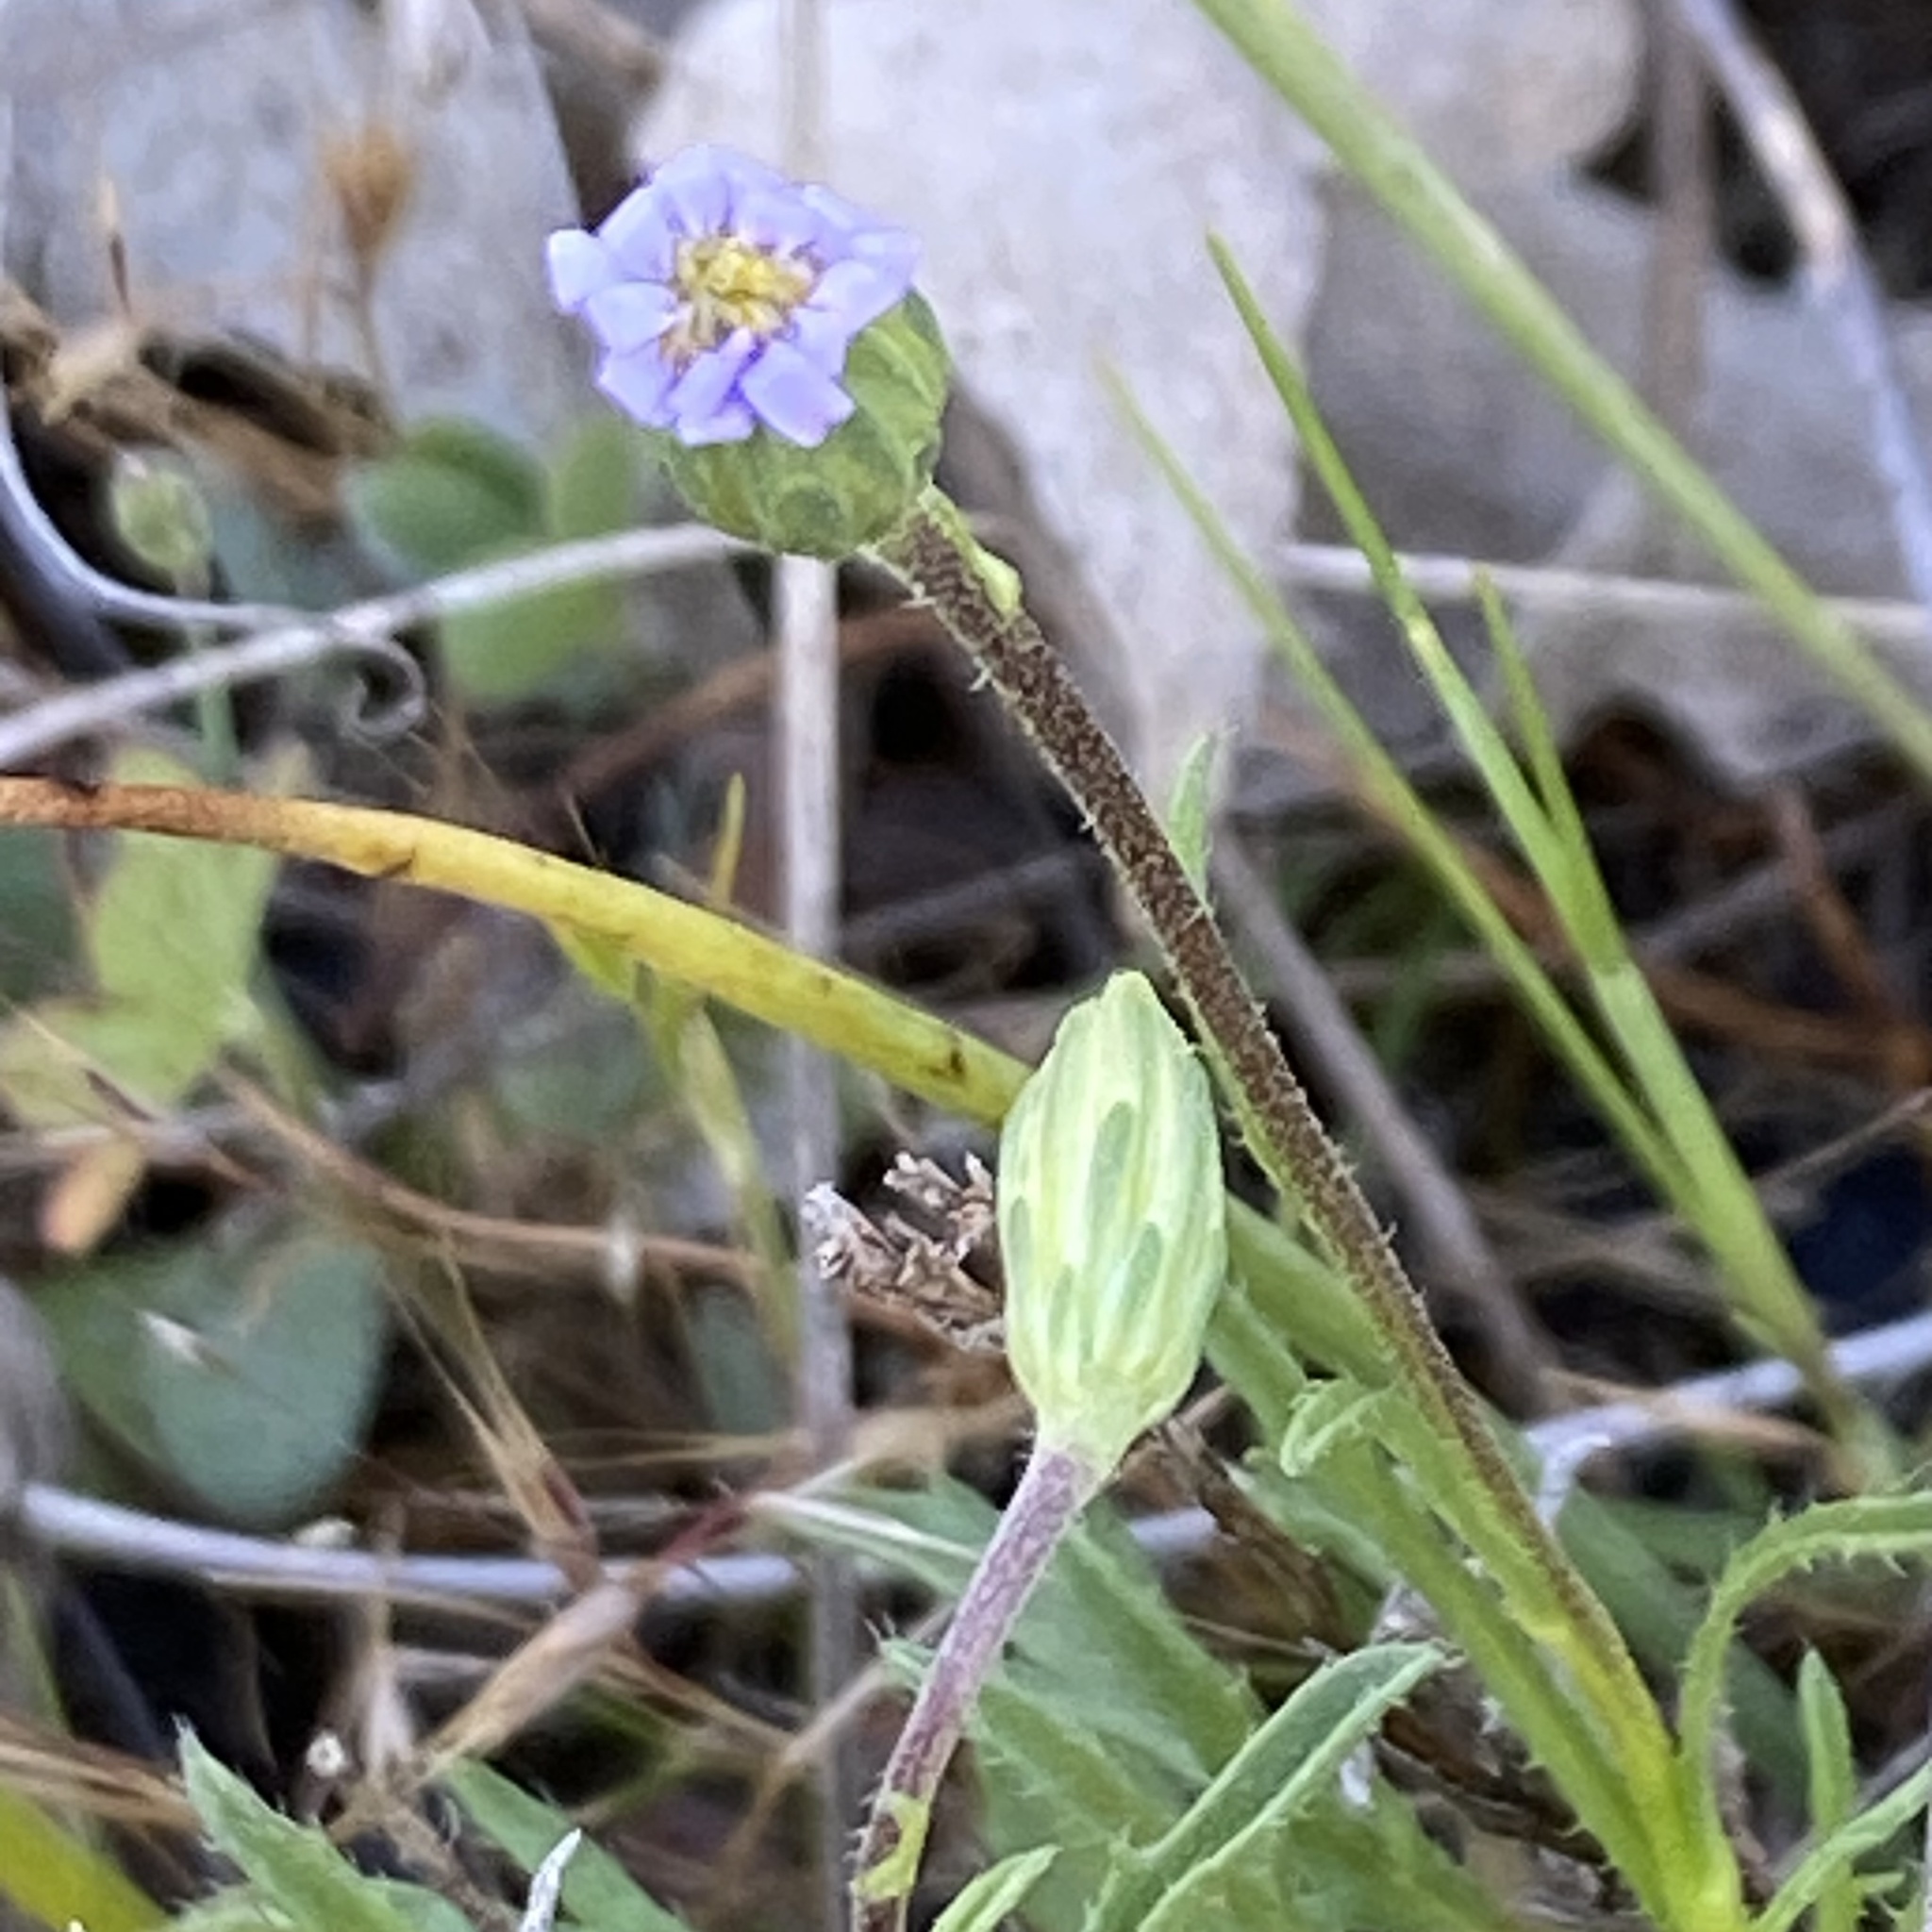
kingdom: Plantae
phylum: Tracheophyta
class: Magnoliopsida
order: Asterales
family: Asteraceae
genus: Vittadinia
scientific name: Vittadinia
